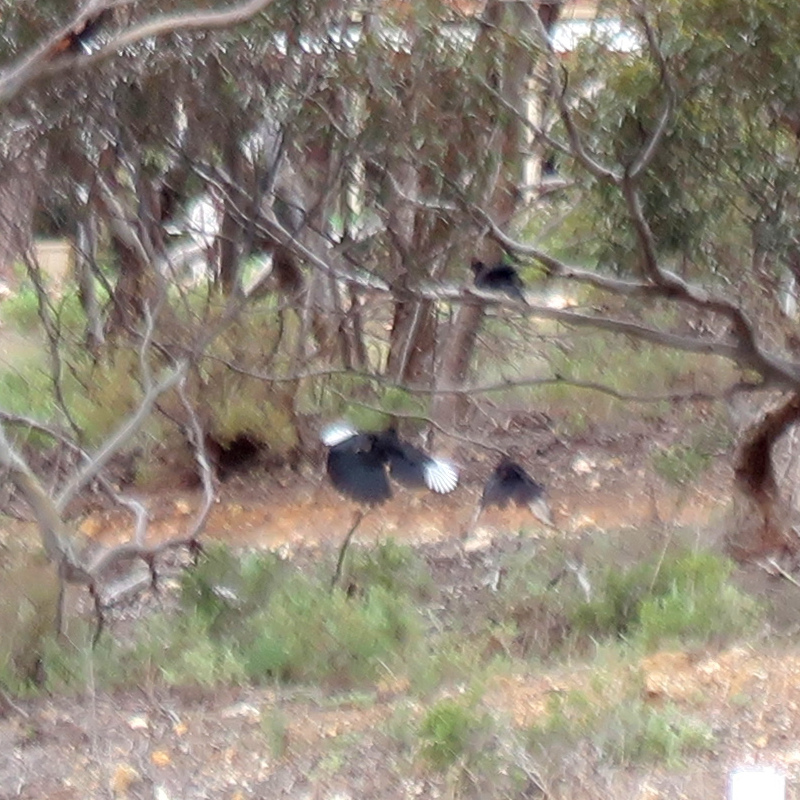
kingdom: Animalia
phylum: Chordata
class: Aves
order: Passeriformes
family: Corcoracidae
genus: Corcorax
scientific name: Corcorax melanoramphos
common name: White-winged chough
